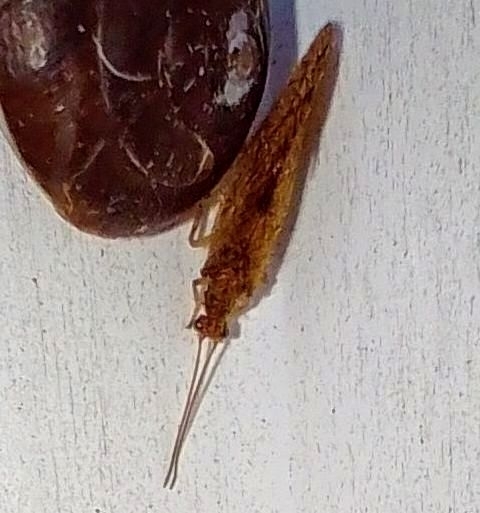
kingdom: Animalia
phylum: Arthropoda
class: Insecta
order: Neuroptera
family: Hemerobiidae
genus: Micromus
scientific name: Micromus angulatus
